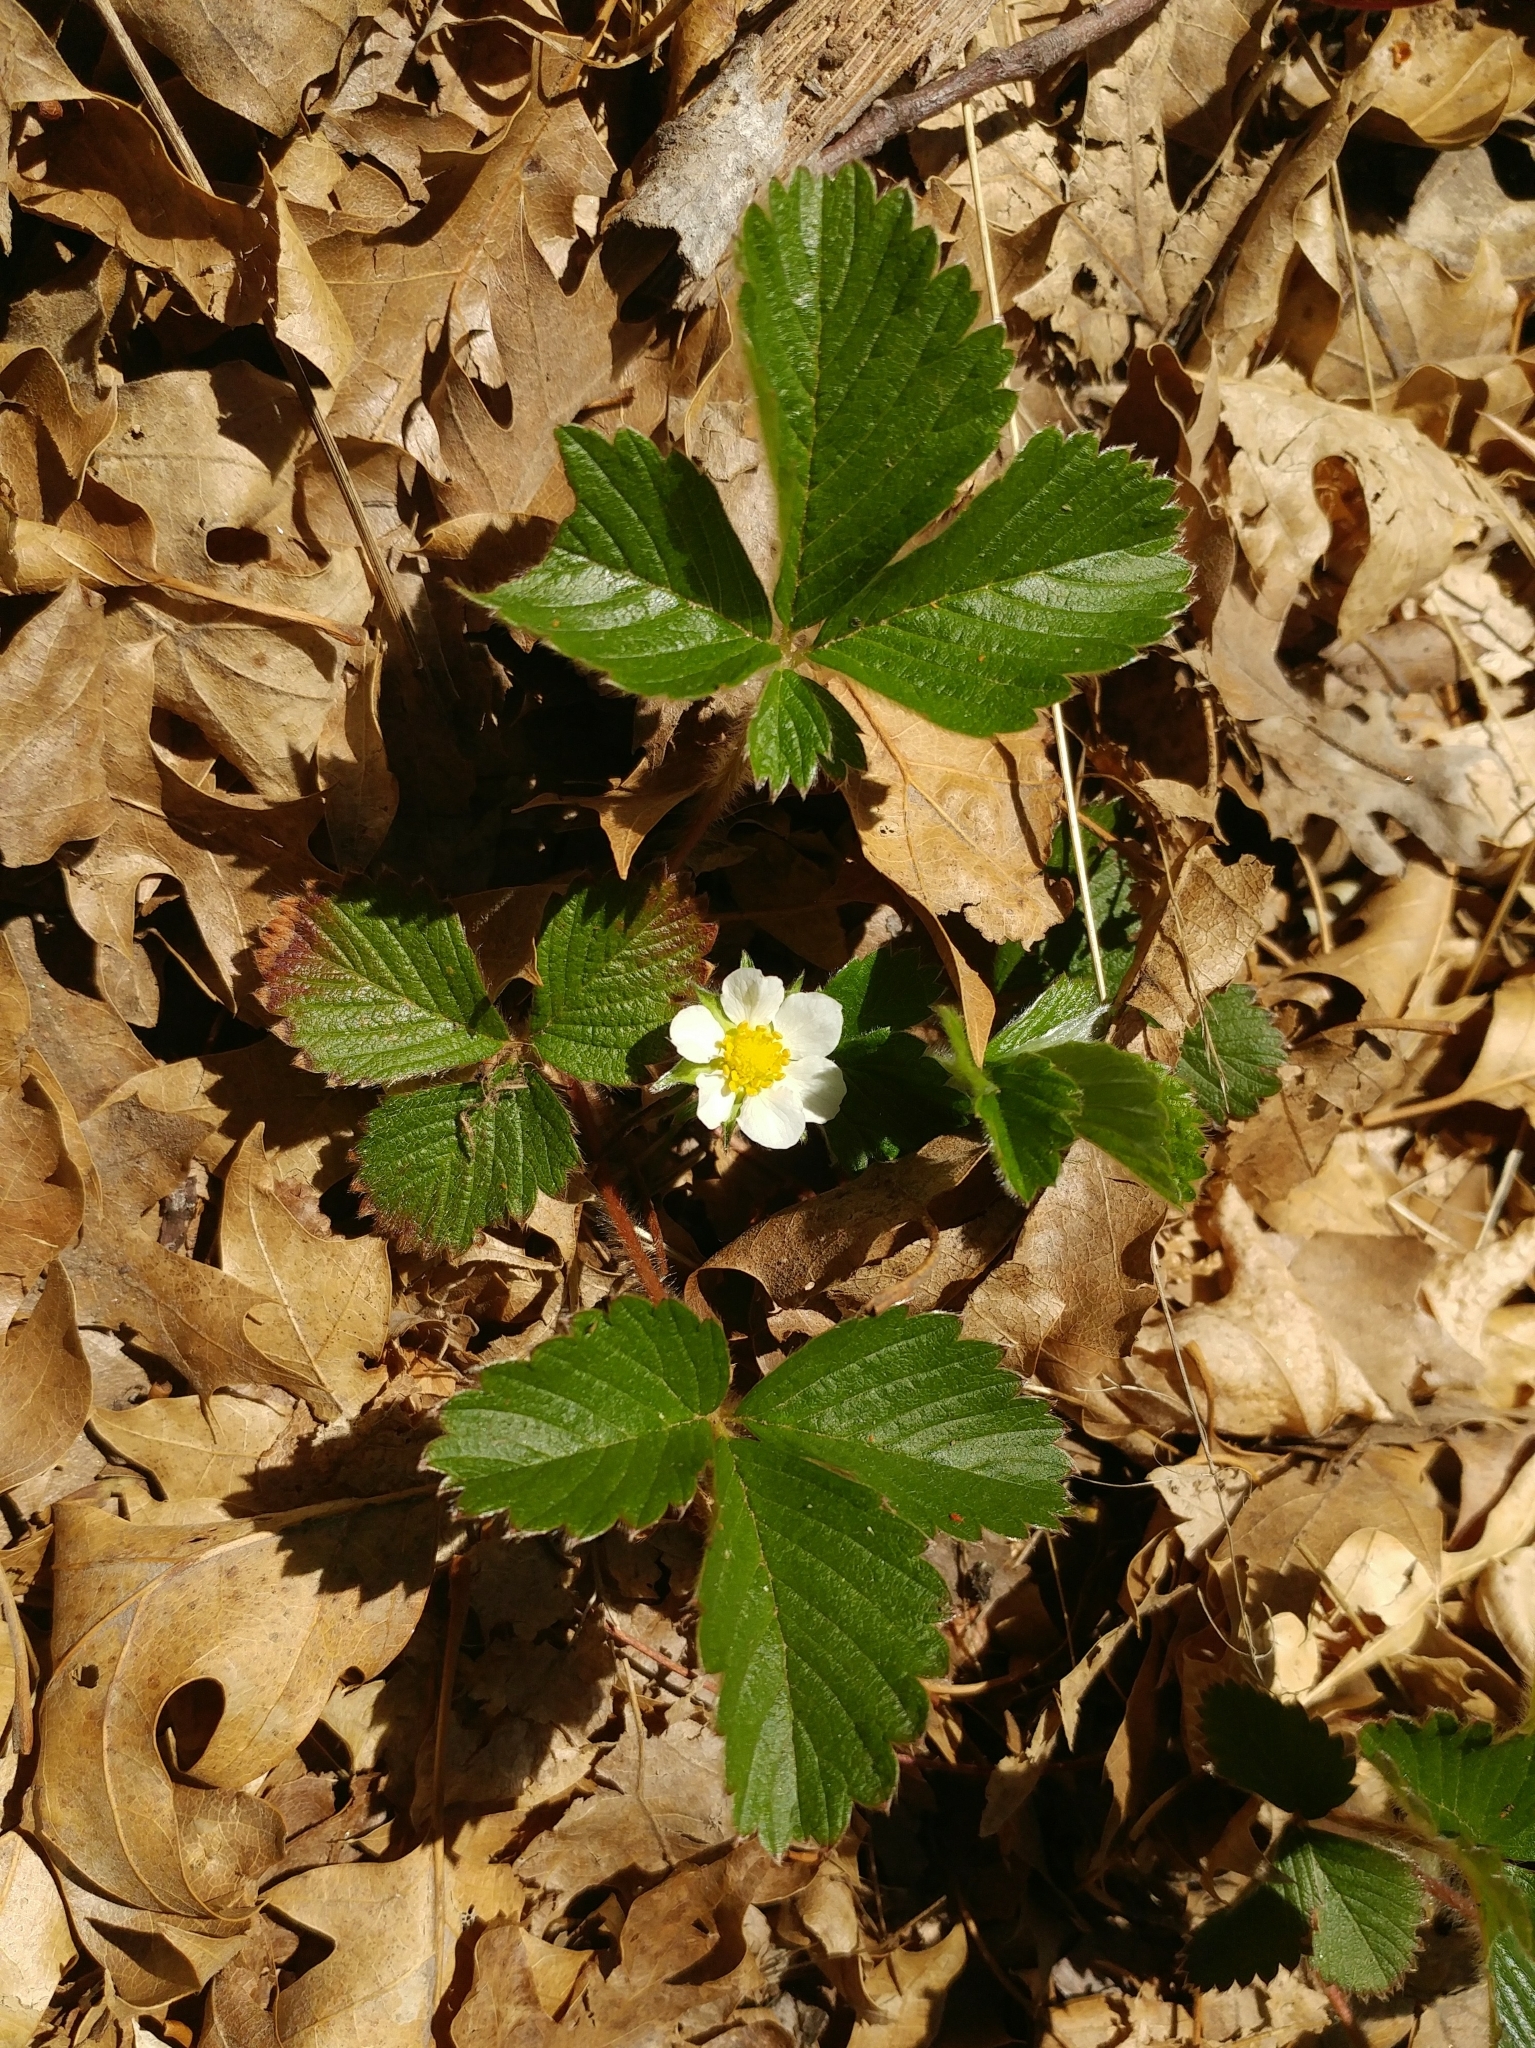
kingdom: Plantae
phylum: Tracheophyta
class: Magnoliopsida
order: Rosales
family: Rosaceae
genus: Fragaria
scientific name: Fragaria vesca
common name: Wild strawberry
